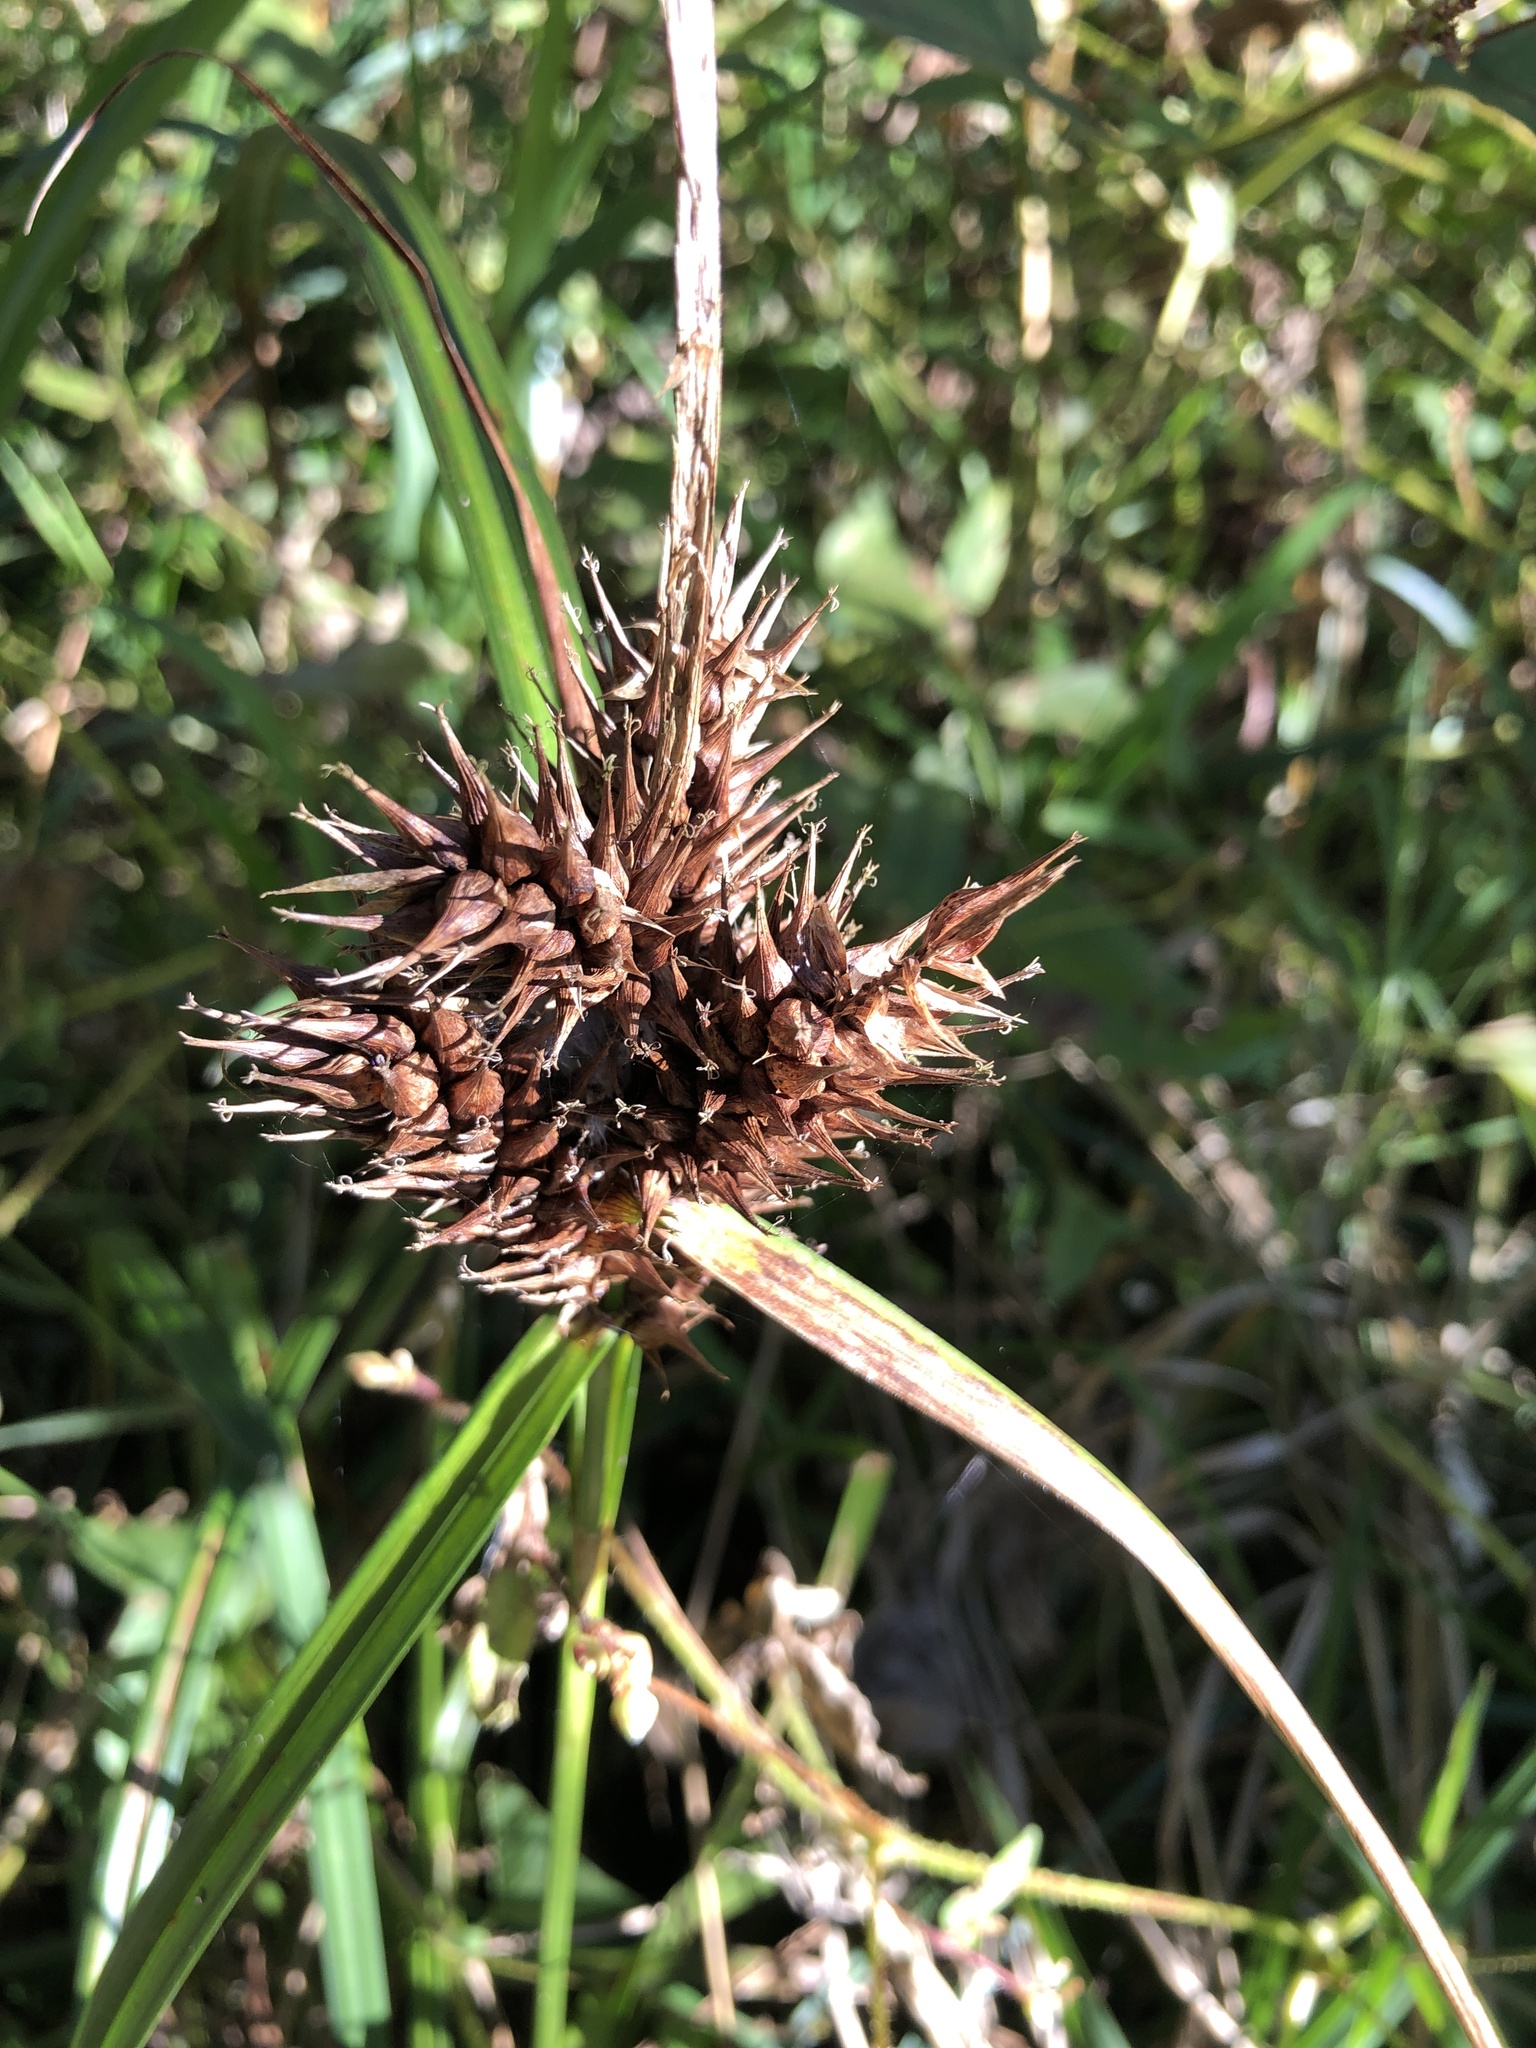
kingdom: Plantae
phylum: Tracheophyta
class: Liliopsida
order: Poales
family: Cyperaceae
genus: Carex
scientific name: Carex lupulina
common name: Hop sedge
